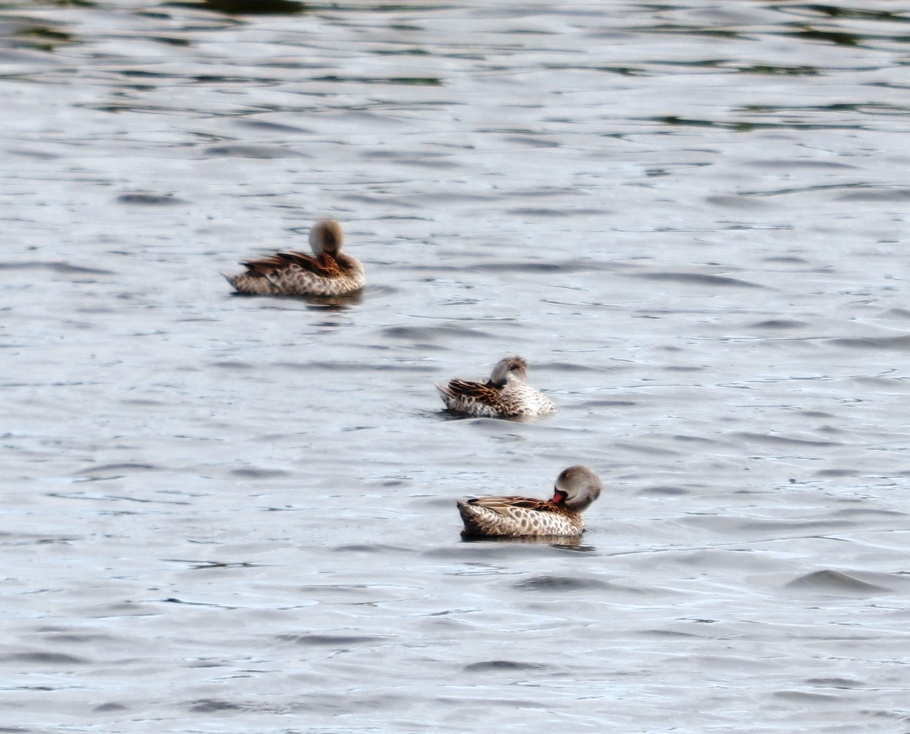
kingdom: Animalia
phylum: Chordata
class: Aves
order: Anseriformes
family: Anatidae
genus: Anas
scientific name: Anas capensis
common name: Cape teal
